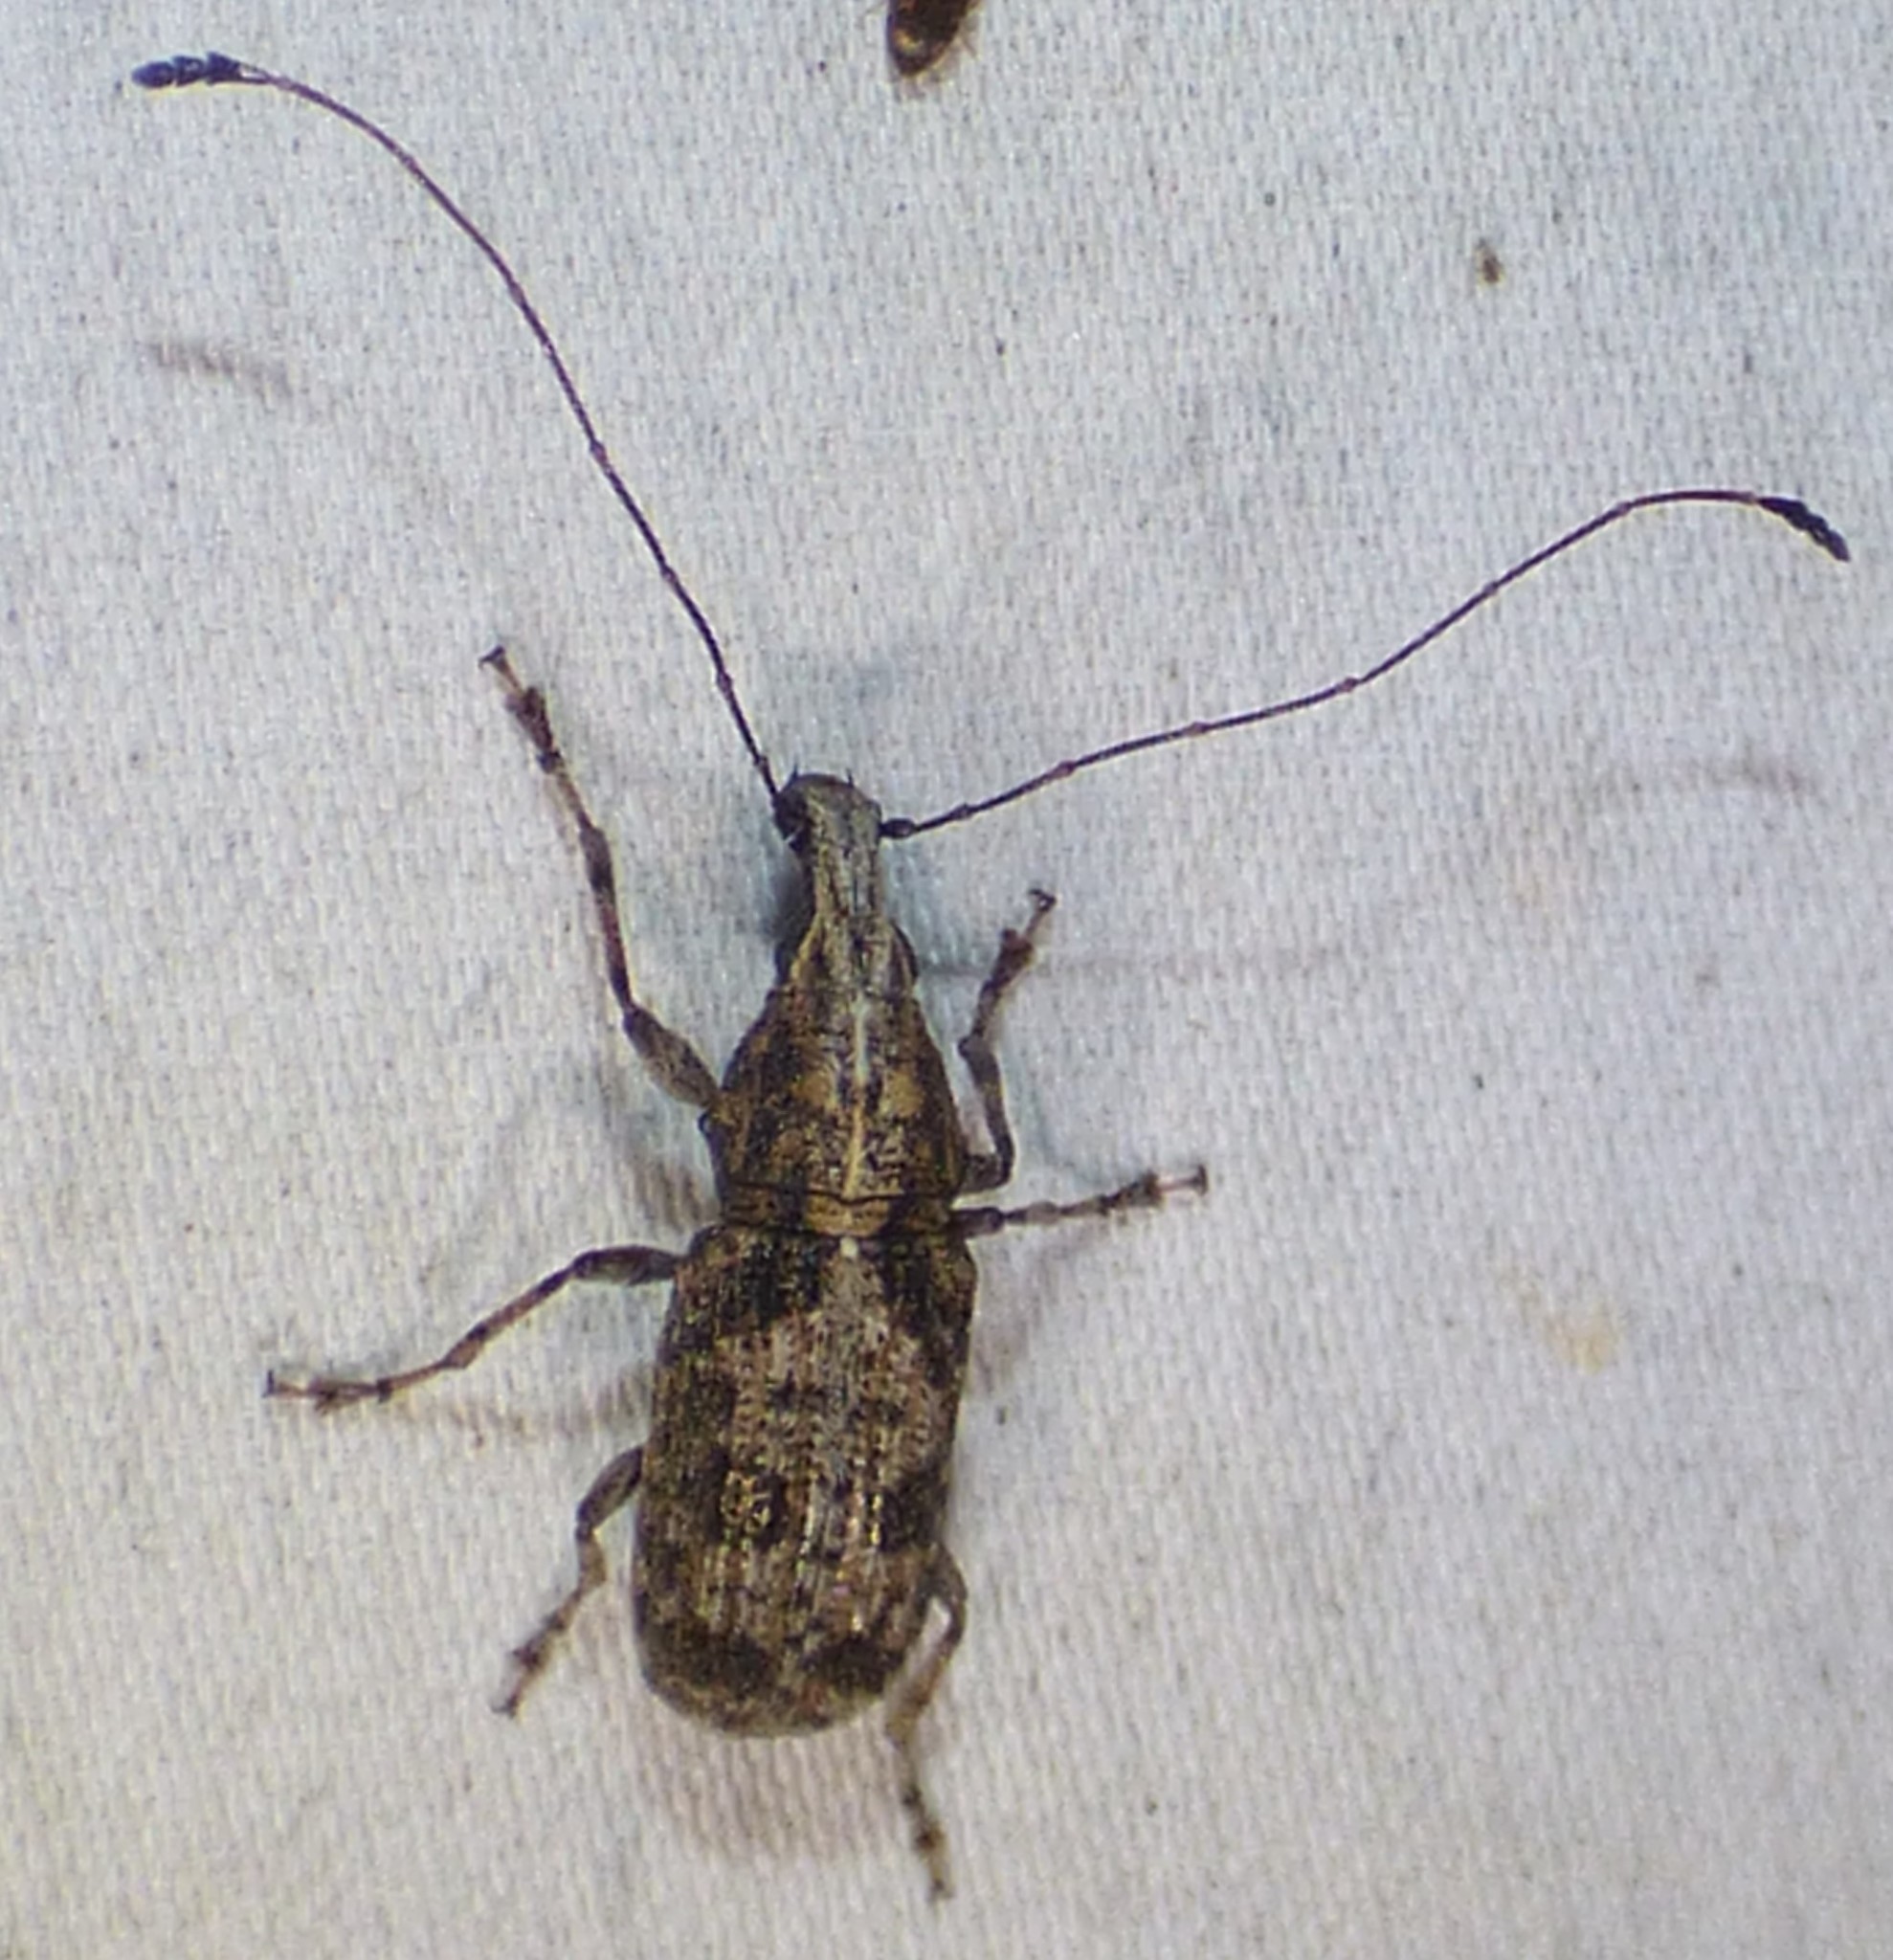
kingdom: Animalia
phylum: Arthropoda
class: Insecta
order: Coleoptera
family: Anthribidae
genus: Meconemus
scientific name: Meconemus infuscatus
